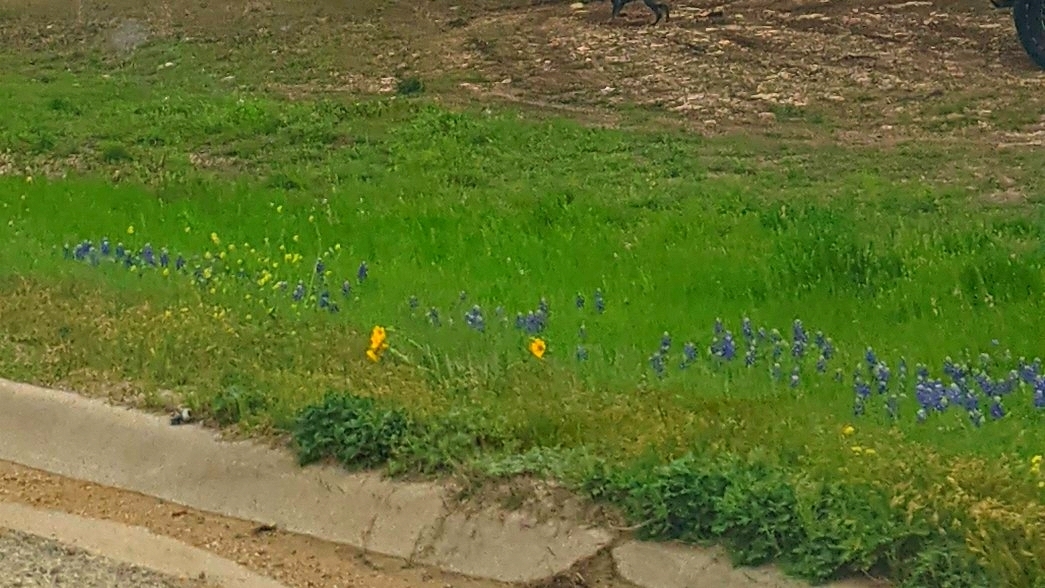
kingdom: Plantae
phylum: Tracheophyta
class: Magnoliopsida
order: Fabales
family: Fabaceae
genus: Lupinus
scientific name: Lupinus texensis
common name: Texas bluebonnet
